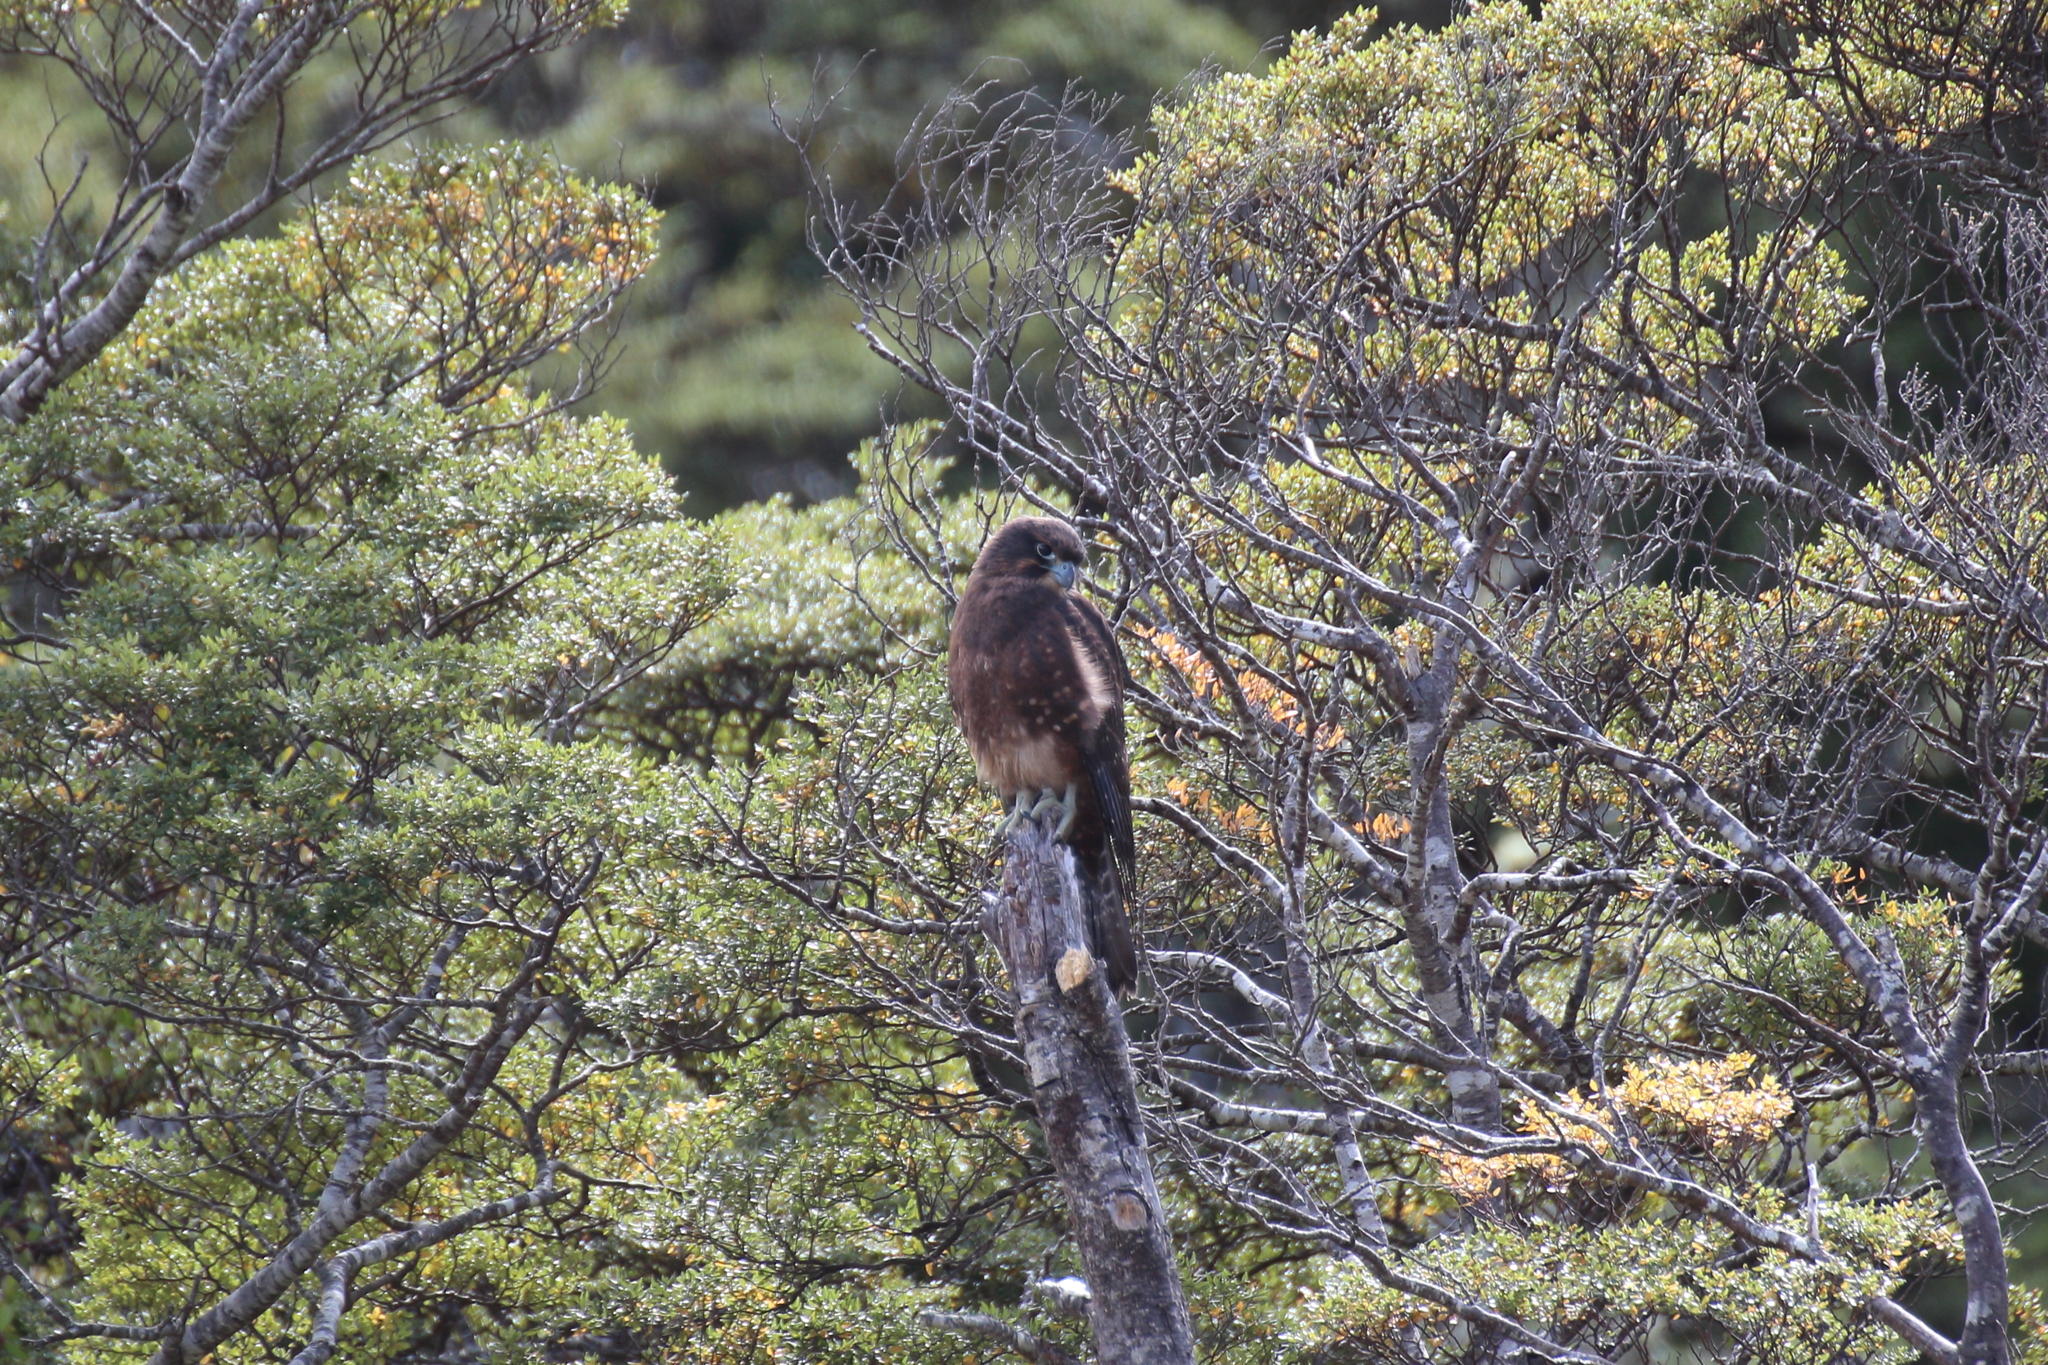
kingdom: Animalia
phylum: Chordata
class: Aves
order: Falconiformes
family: Falconidae
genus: Falco
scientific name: Falco novaeseelandiae
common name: New zealand falcon
